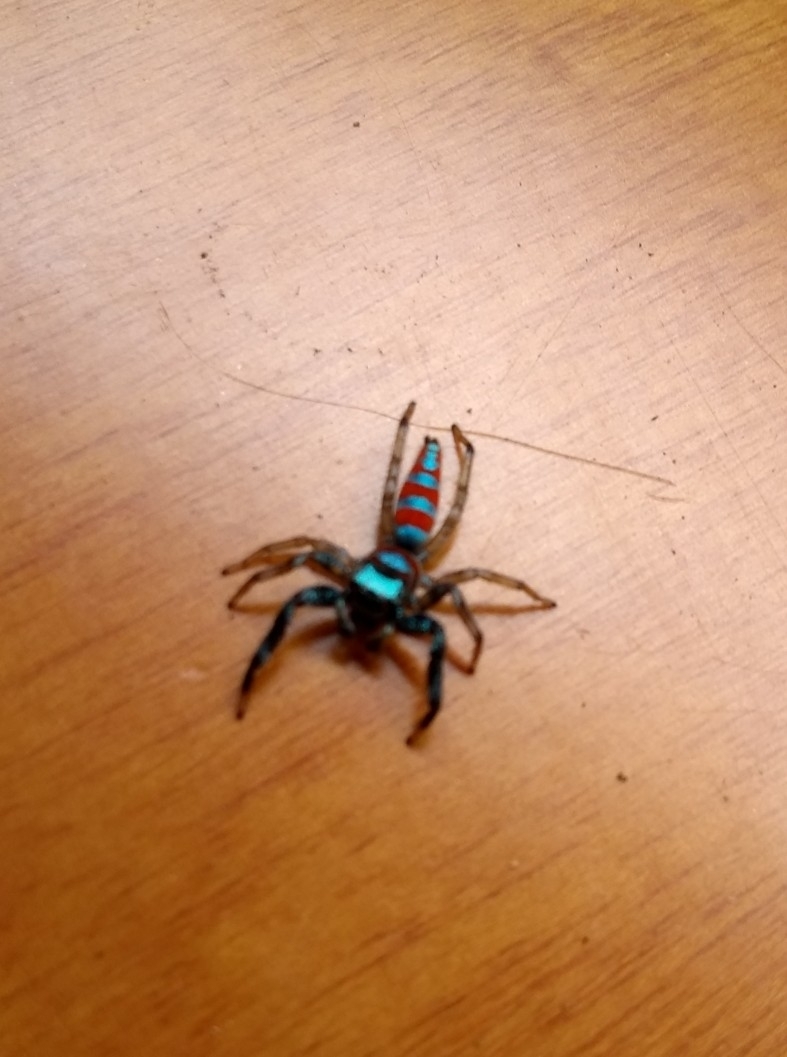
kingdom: Animalia
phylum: Arthropoda
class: Arachnida
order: Araneae
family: Salticidae
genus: Psecas
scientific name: Psecas sumptuosus
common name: Jumping spiders
